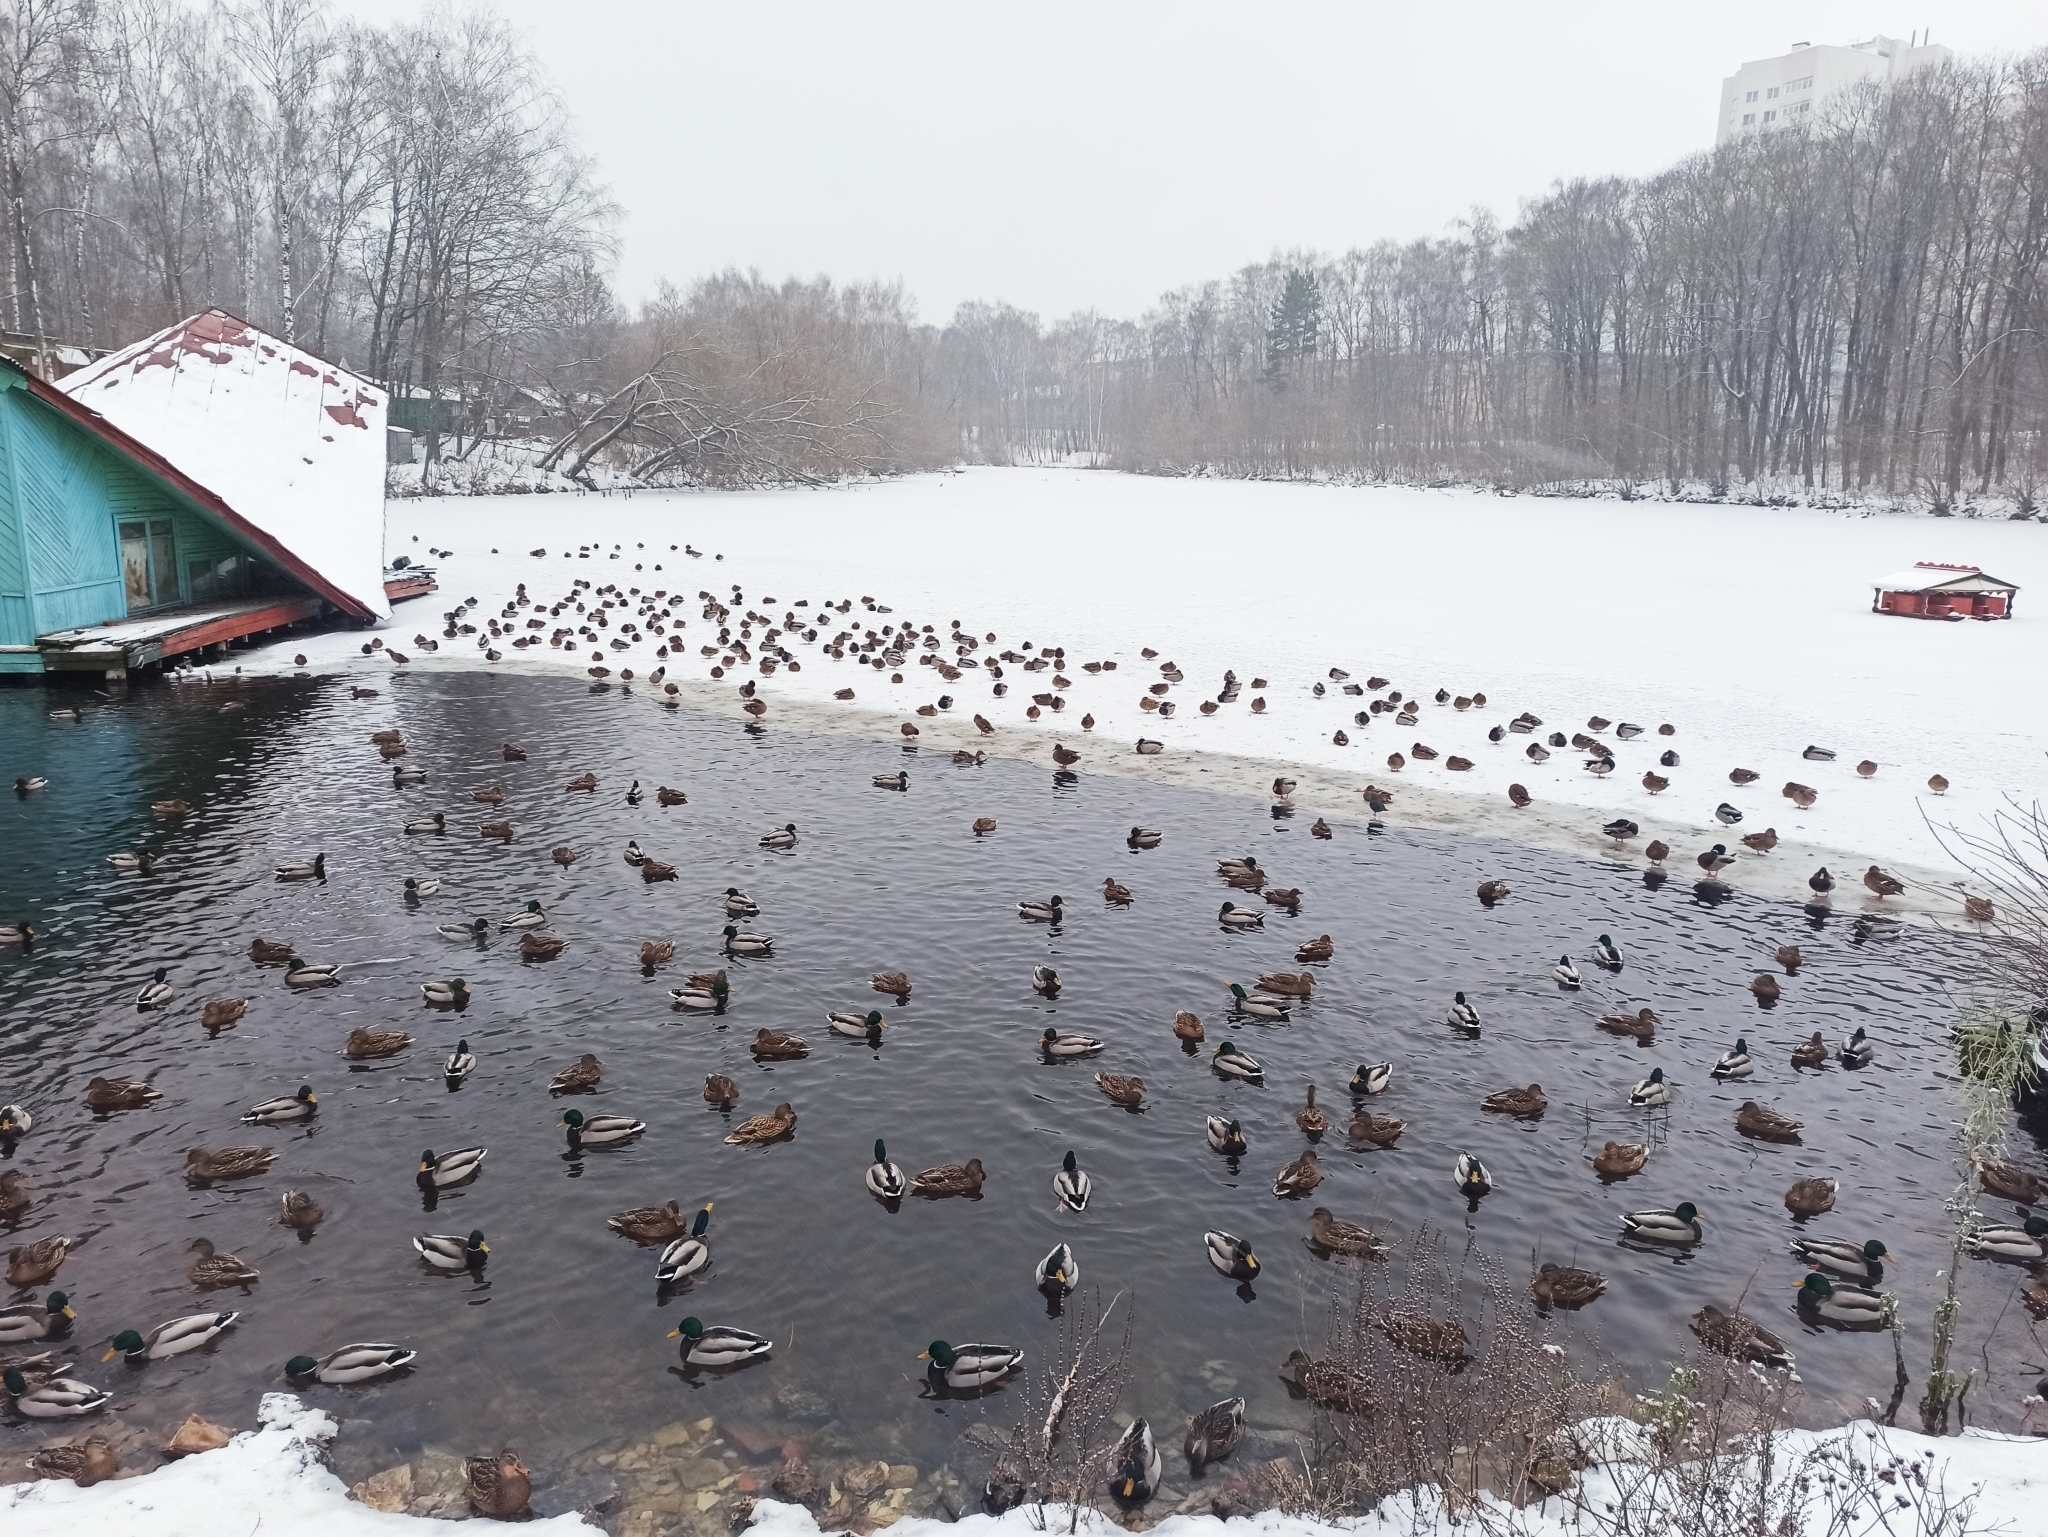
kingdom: Animalia
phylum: Chordata
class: Aves
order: Anseriformes
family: Anatidae
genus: Anas
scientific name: Anas platyrhynchos
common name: Mallard
